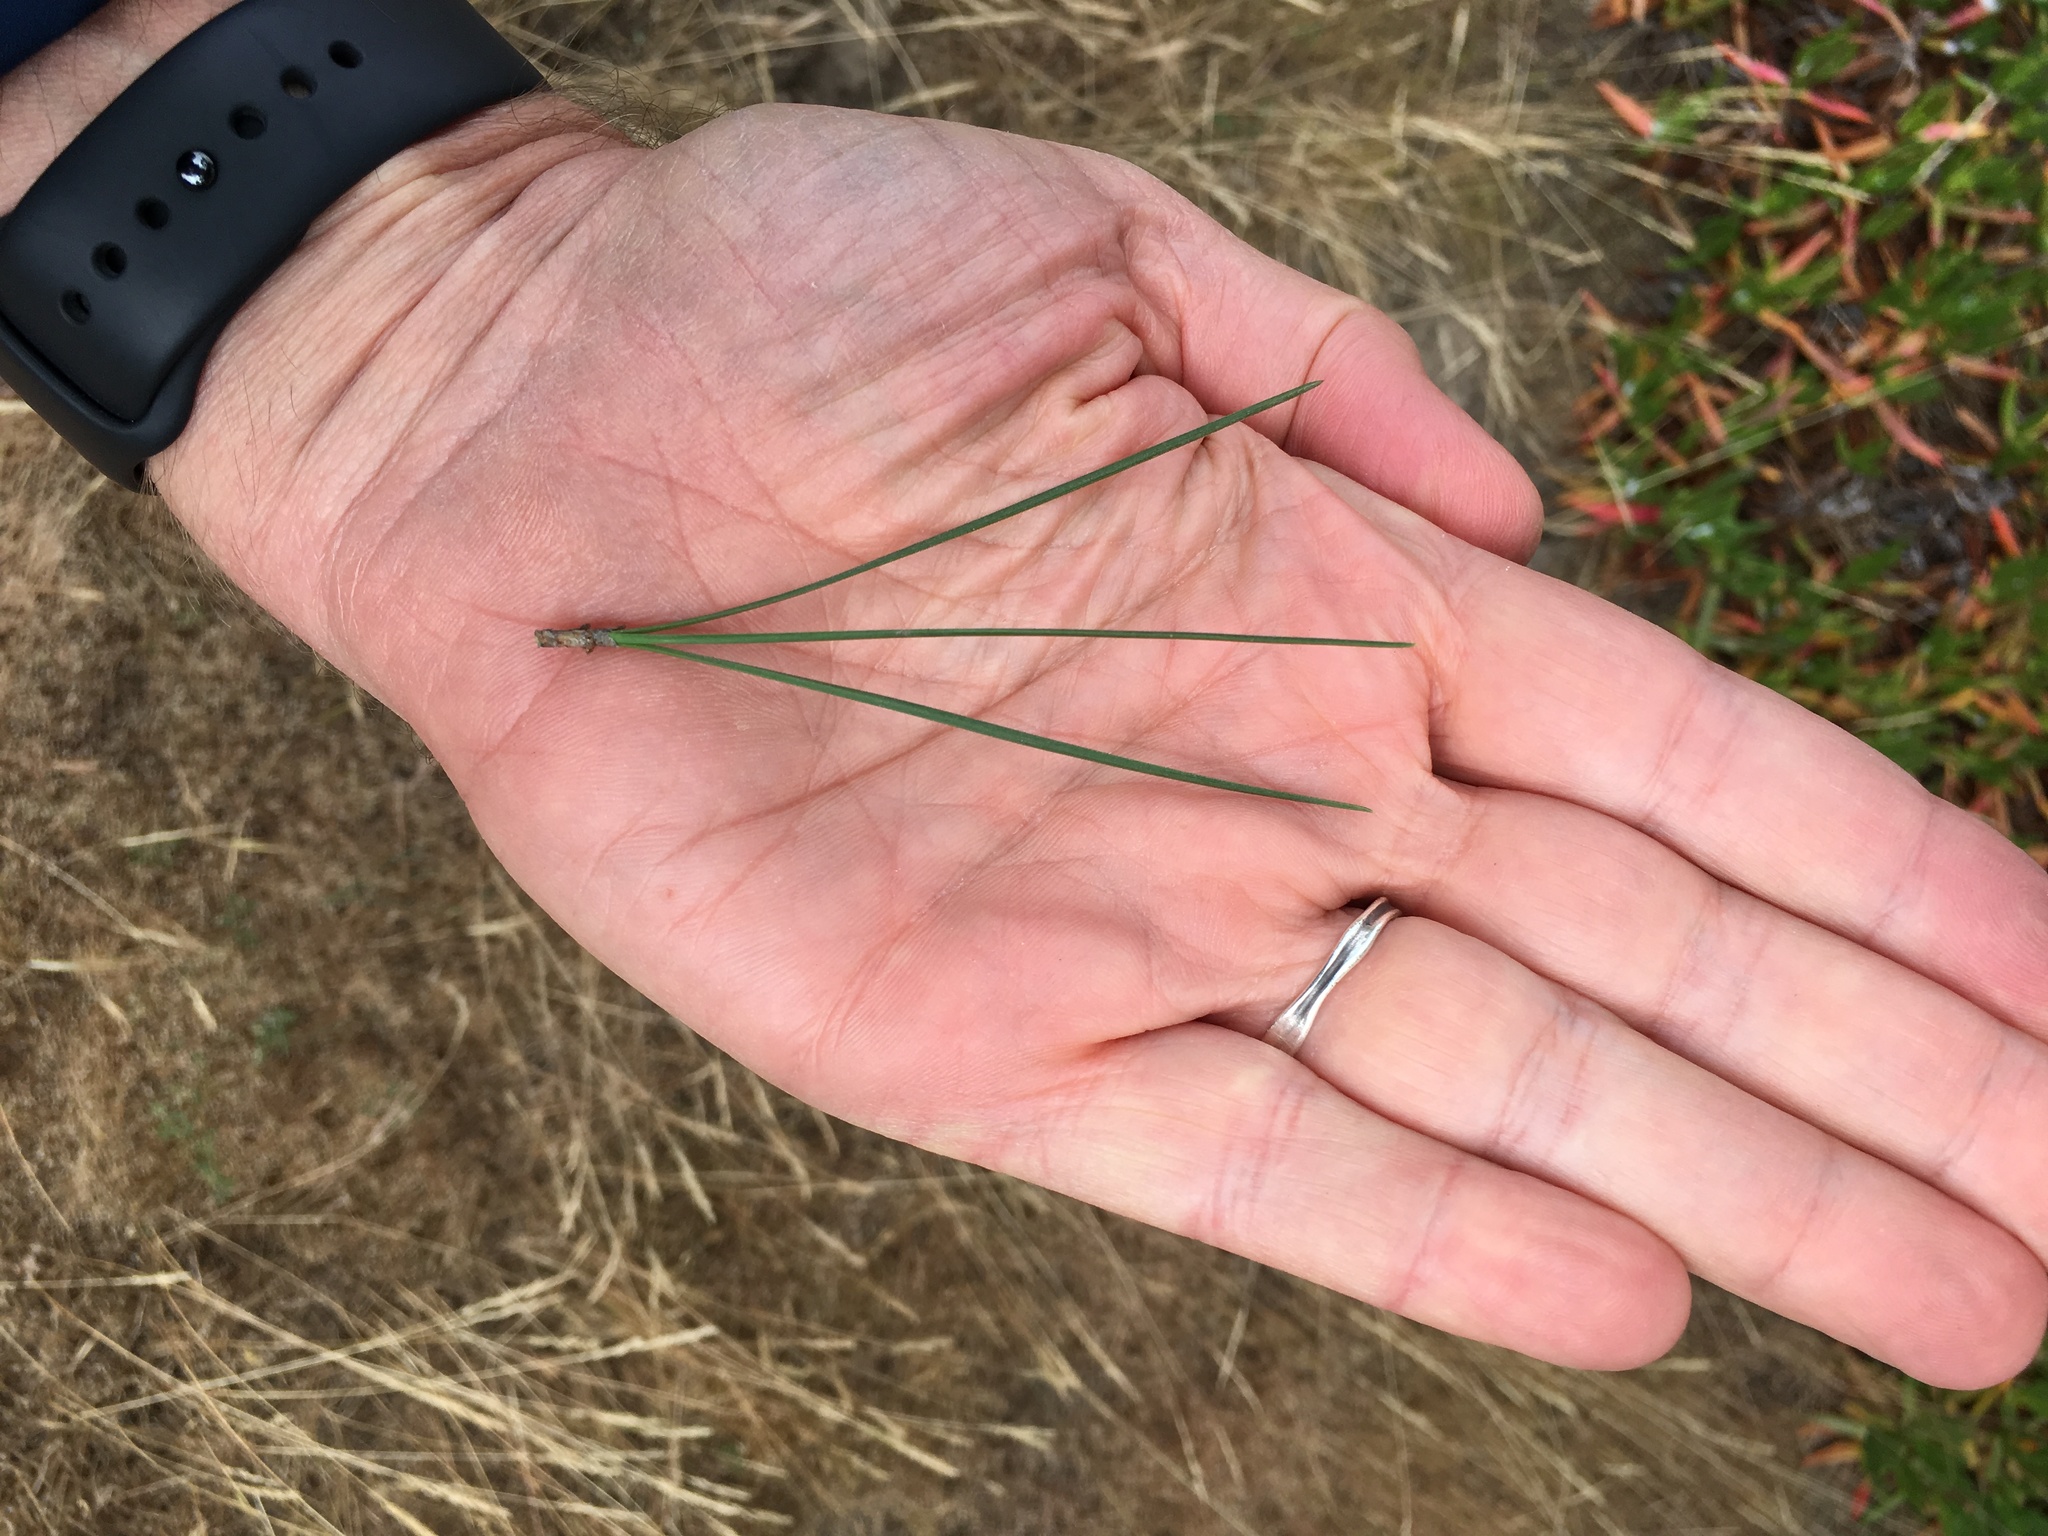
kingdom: Plantae
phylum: Tracheophyta
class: Pinopsida
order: Pinales
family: Pinaceae
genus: Pinus
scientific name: Pinus radiata
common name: Monterey pine
